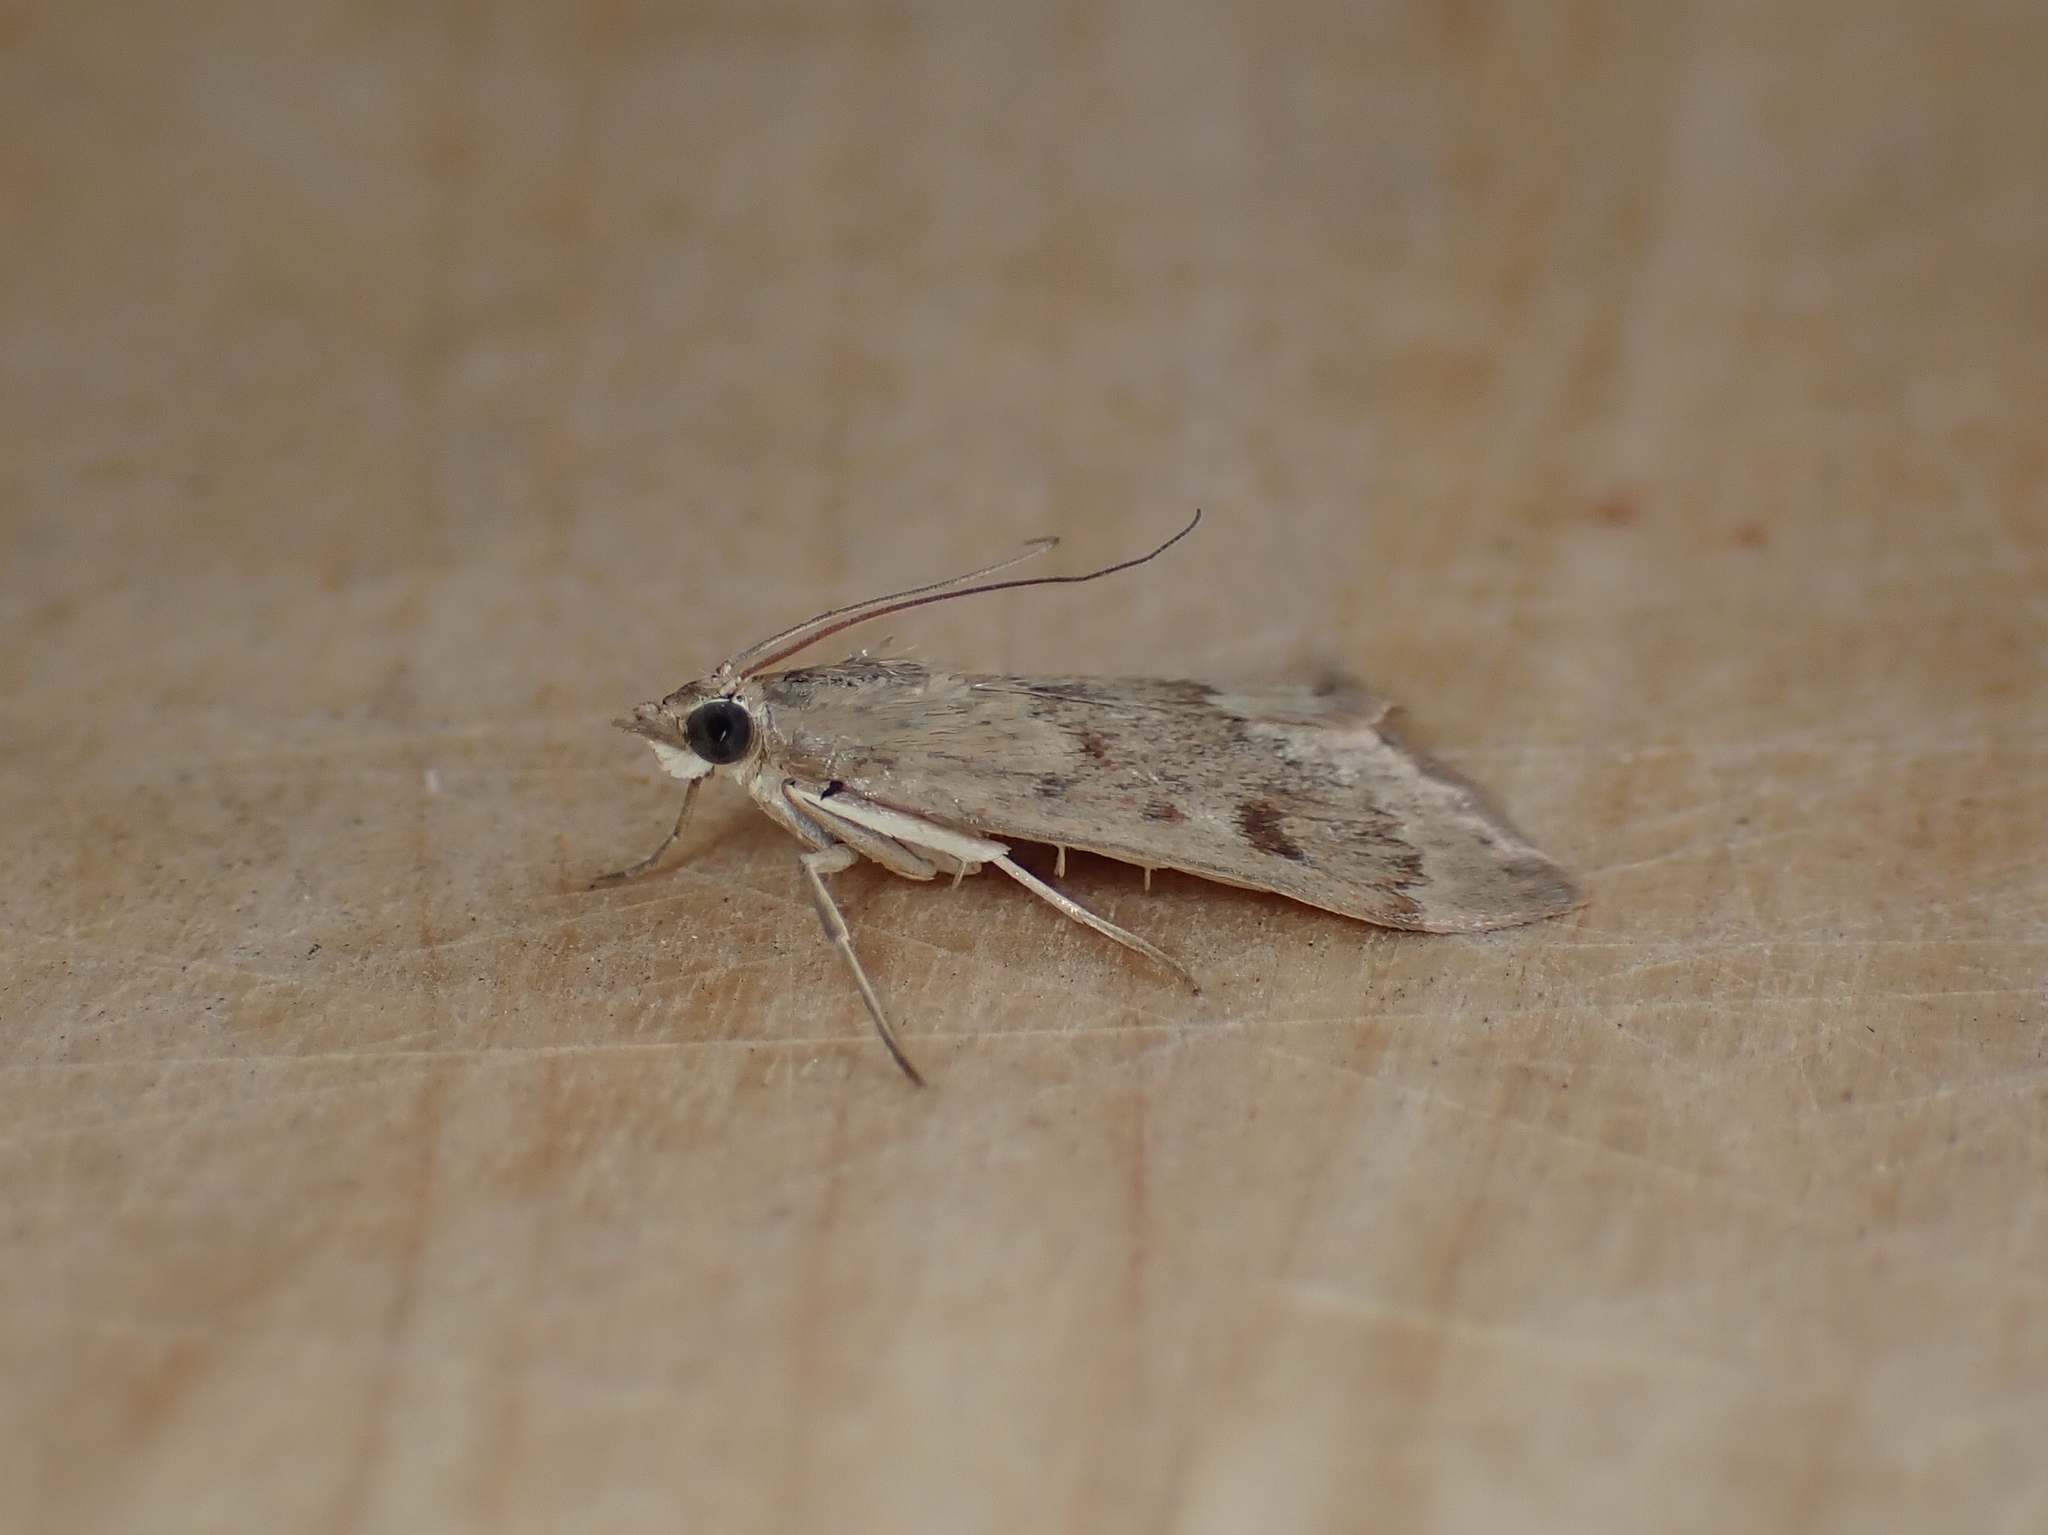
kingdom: Animalia
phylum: Arthropoda
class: Insecta
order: Lepidoptera
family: Crambidae
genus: Achyra
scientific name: Achyra rantalis
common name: Garden webworm
